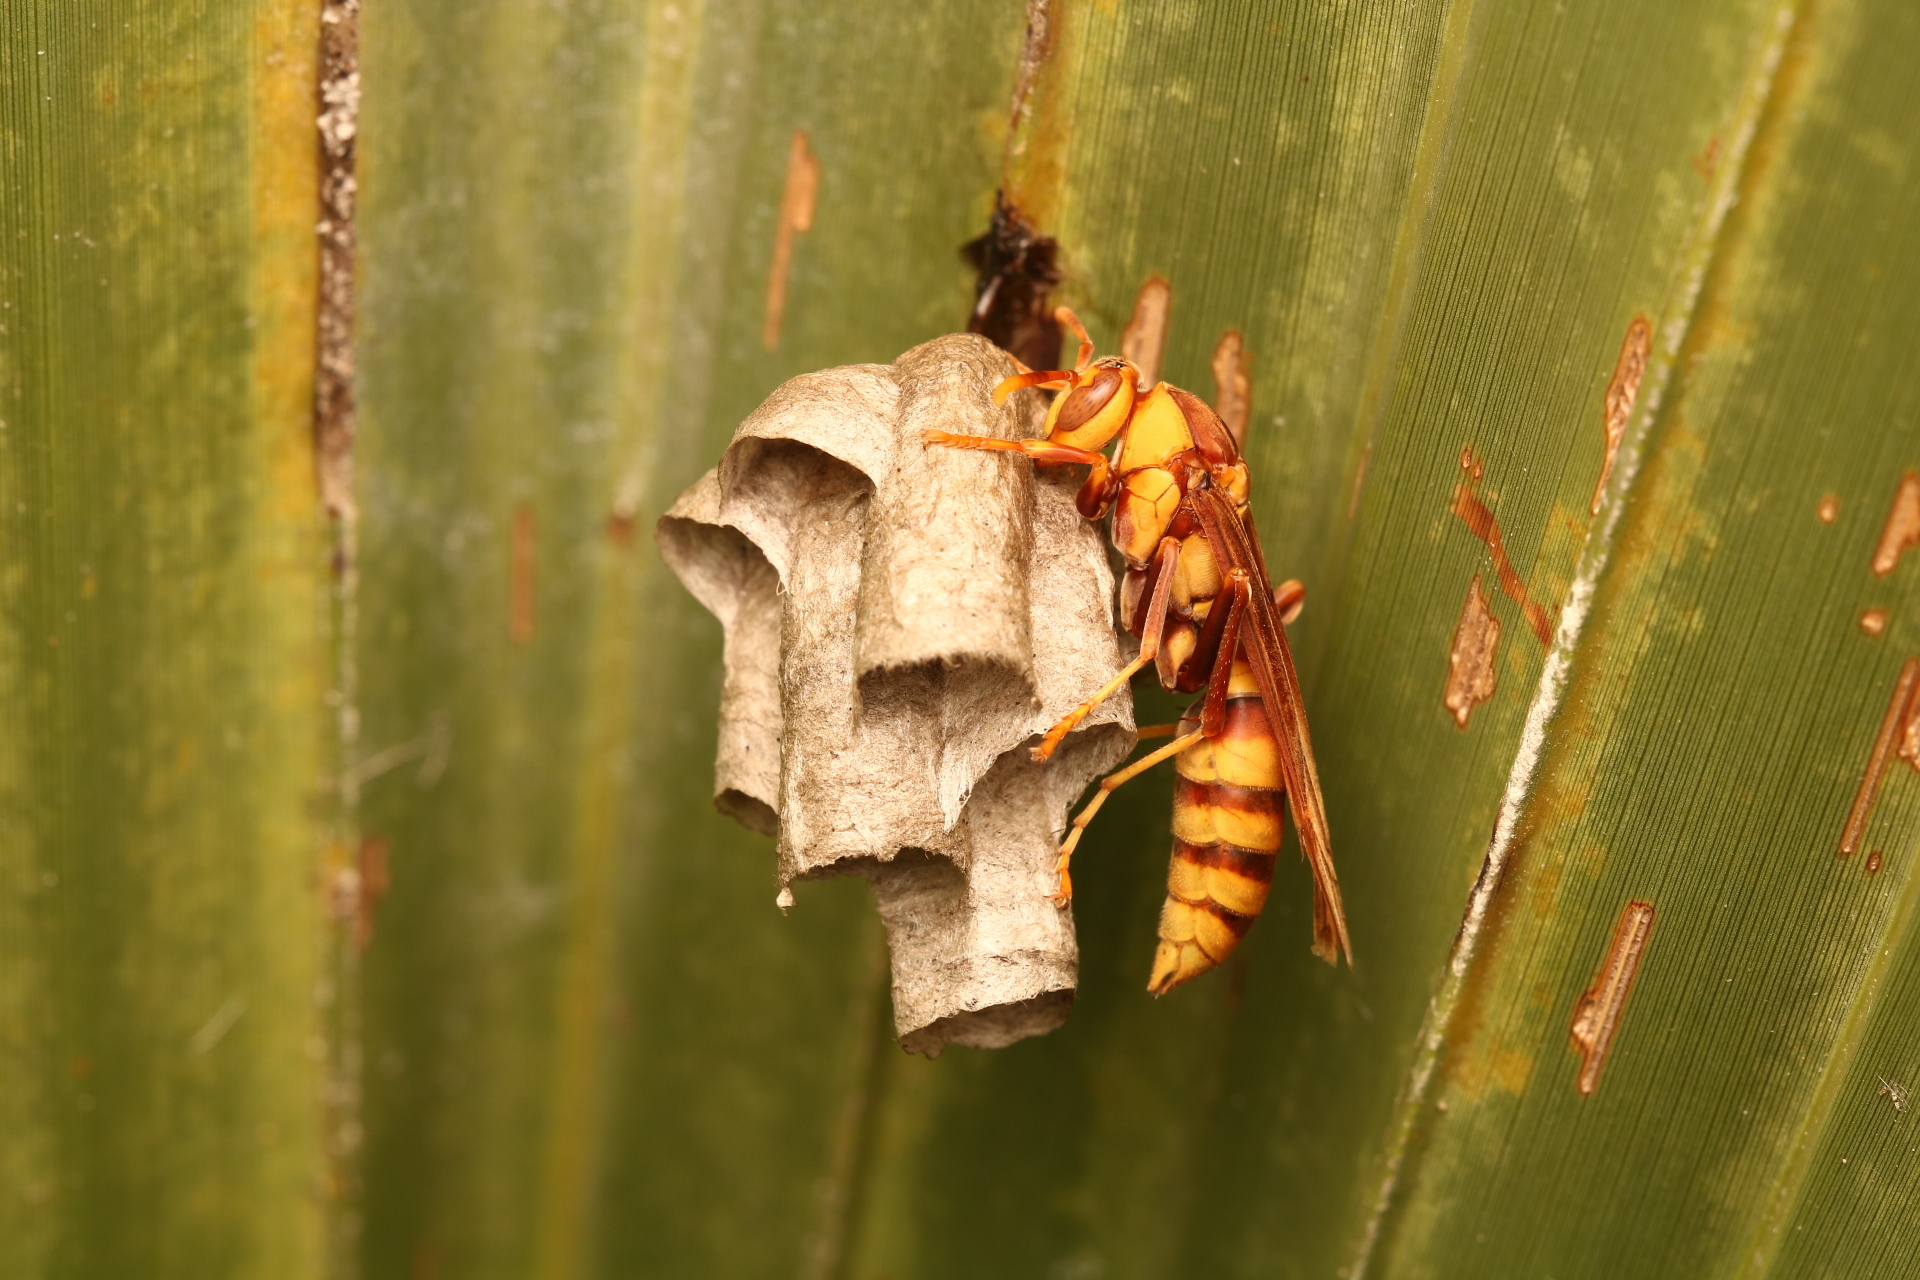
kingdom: Animalia
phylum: Arthropoda
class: Insecta
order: Hymenoptera
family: Eumenidae
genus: Polistes
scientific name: Polistes major
